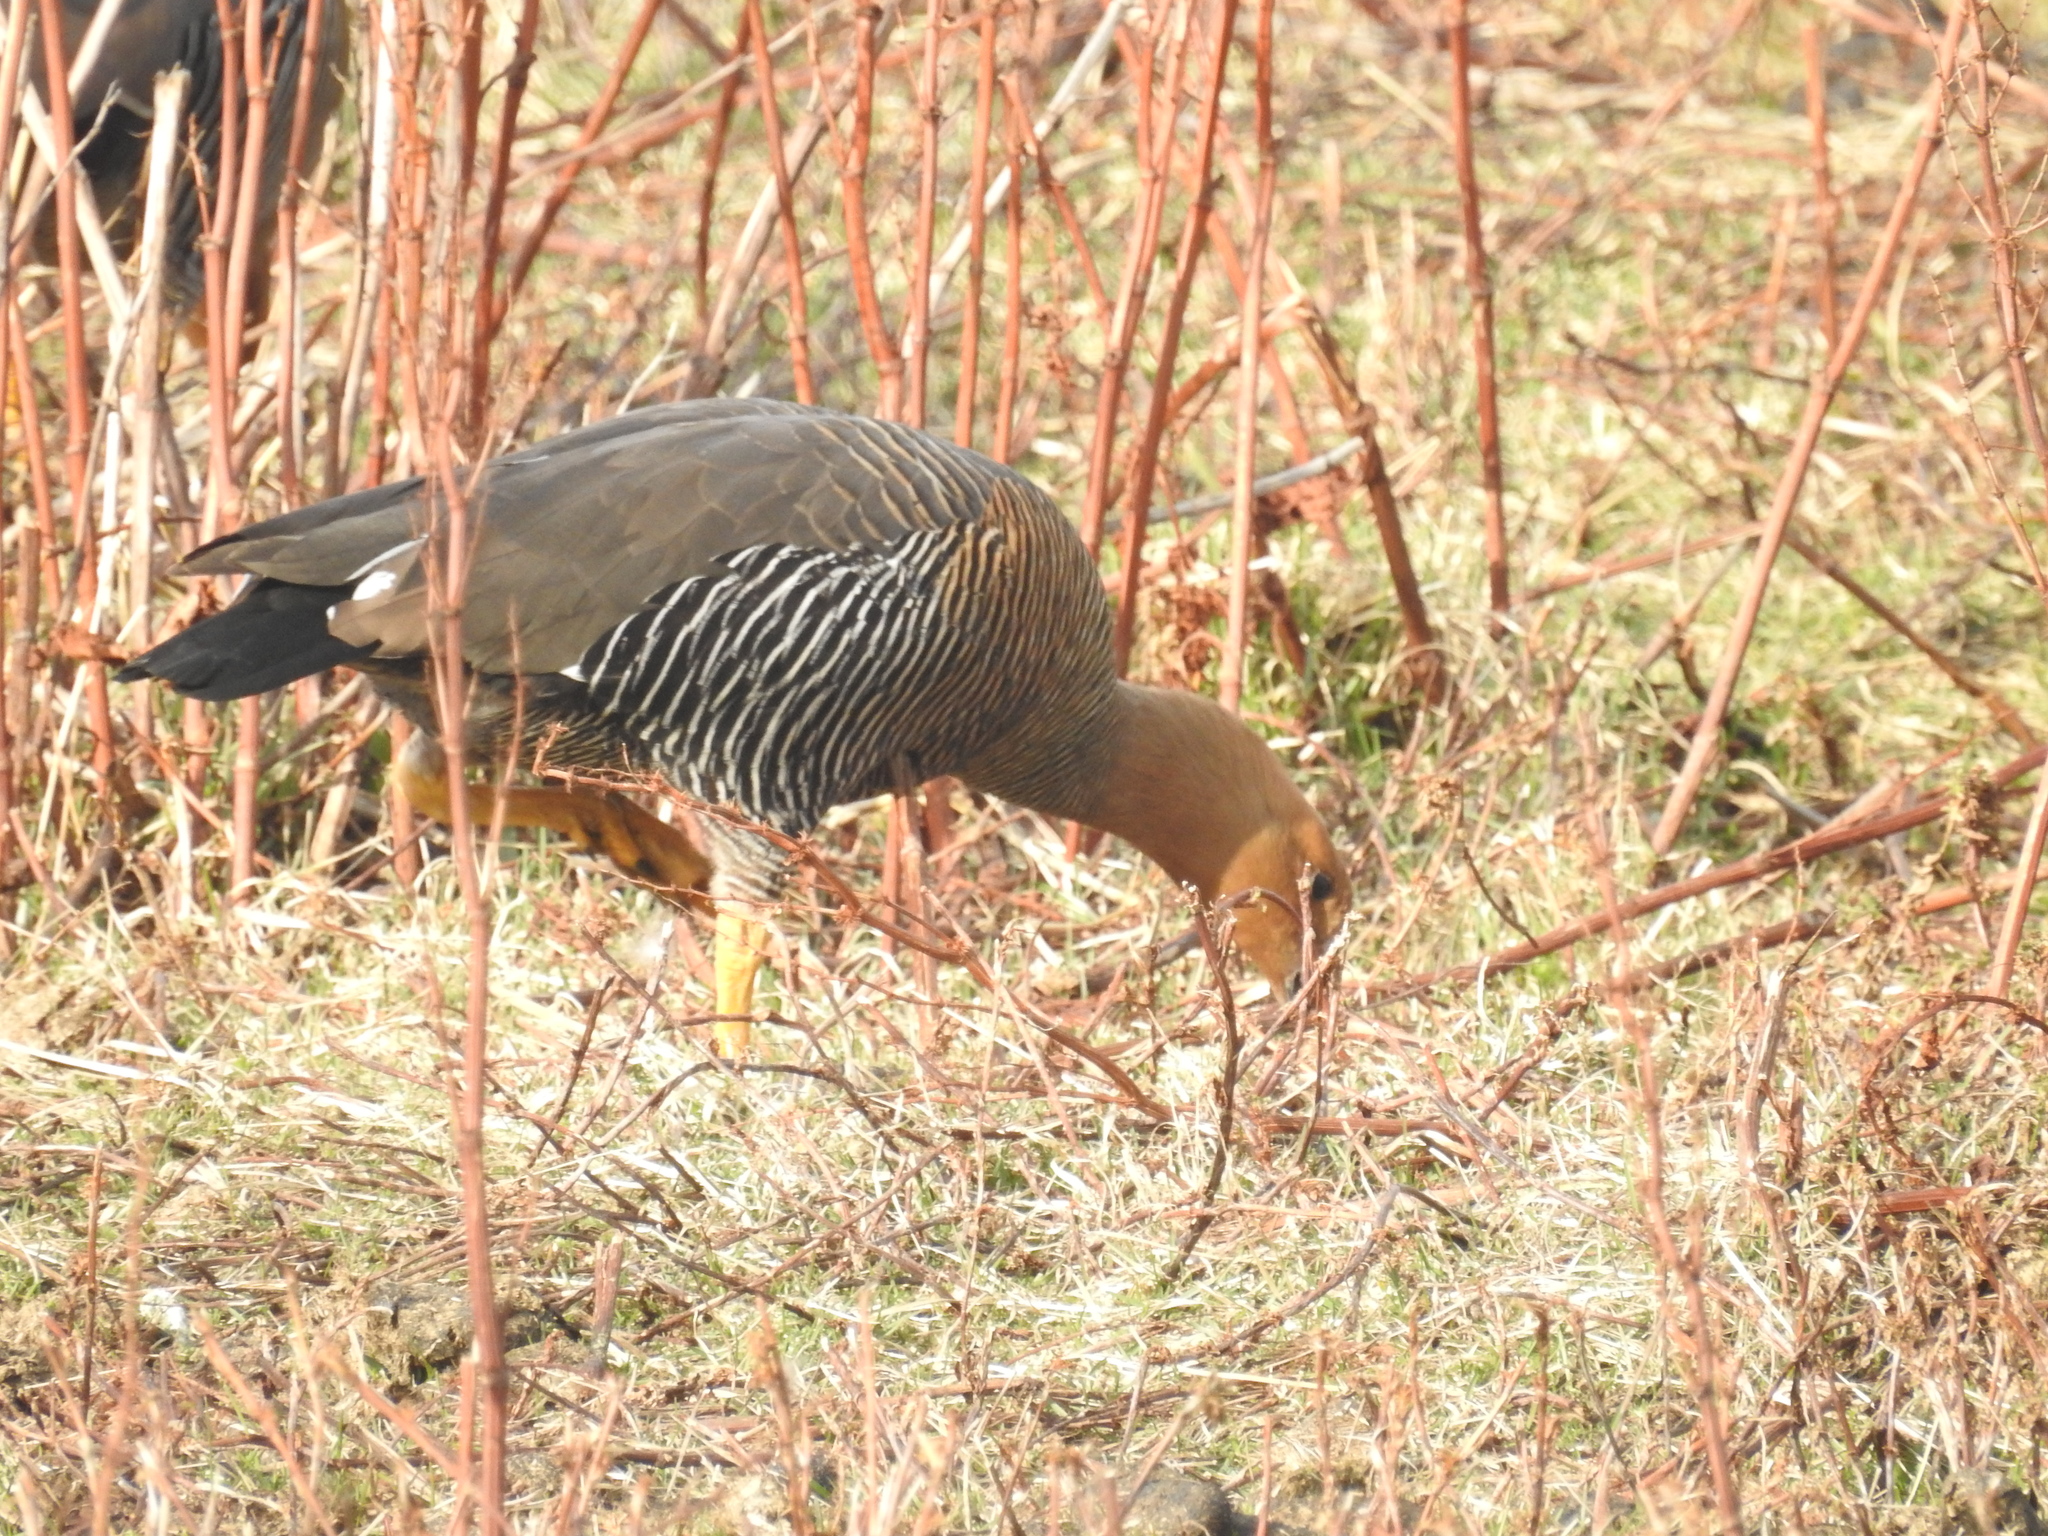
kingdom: Animalia
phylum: Chordata
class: Aves
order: Anseriformes
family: Anatidae
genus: Chloephaga
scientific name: Chloephaga picta
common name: Upland goose
